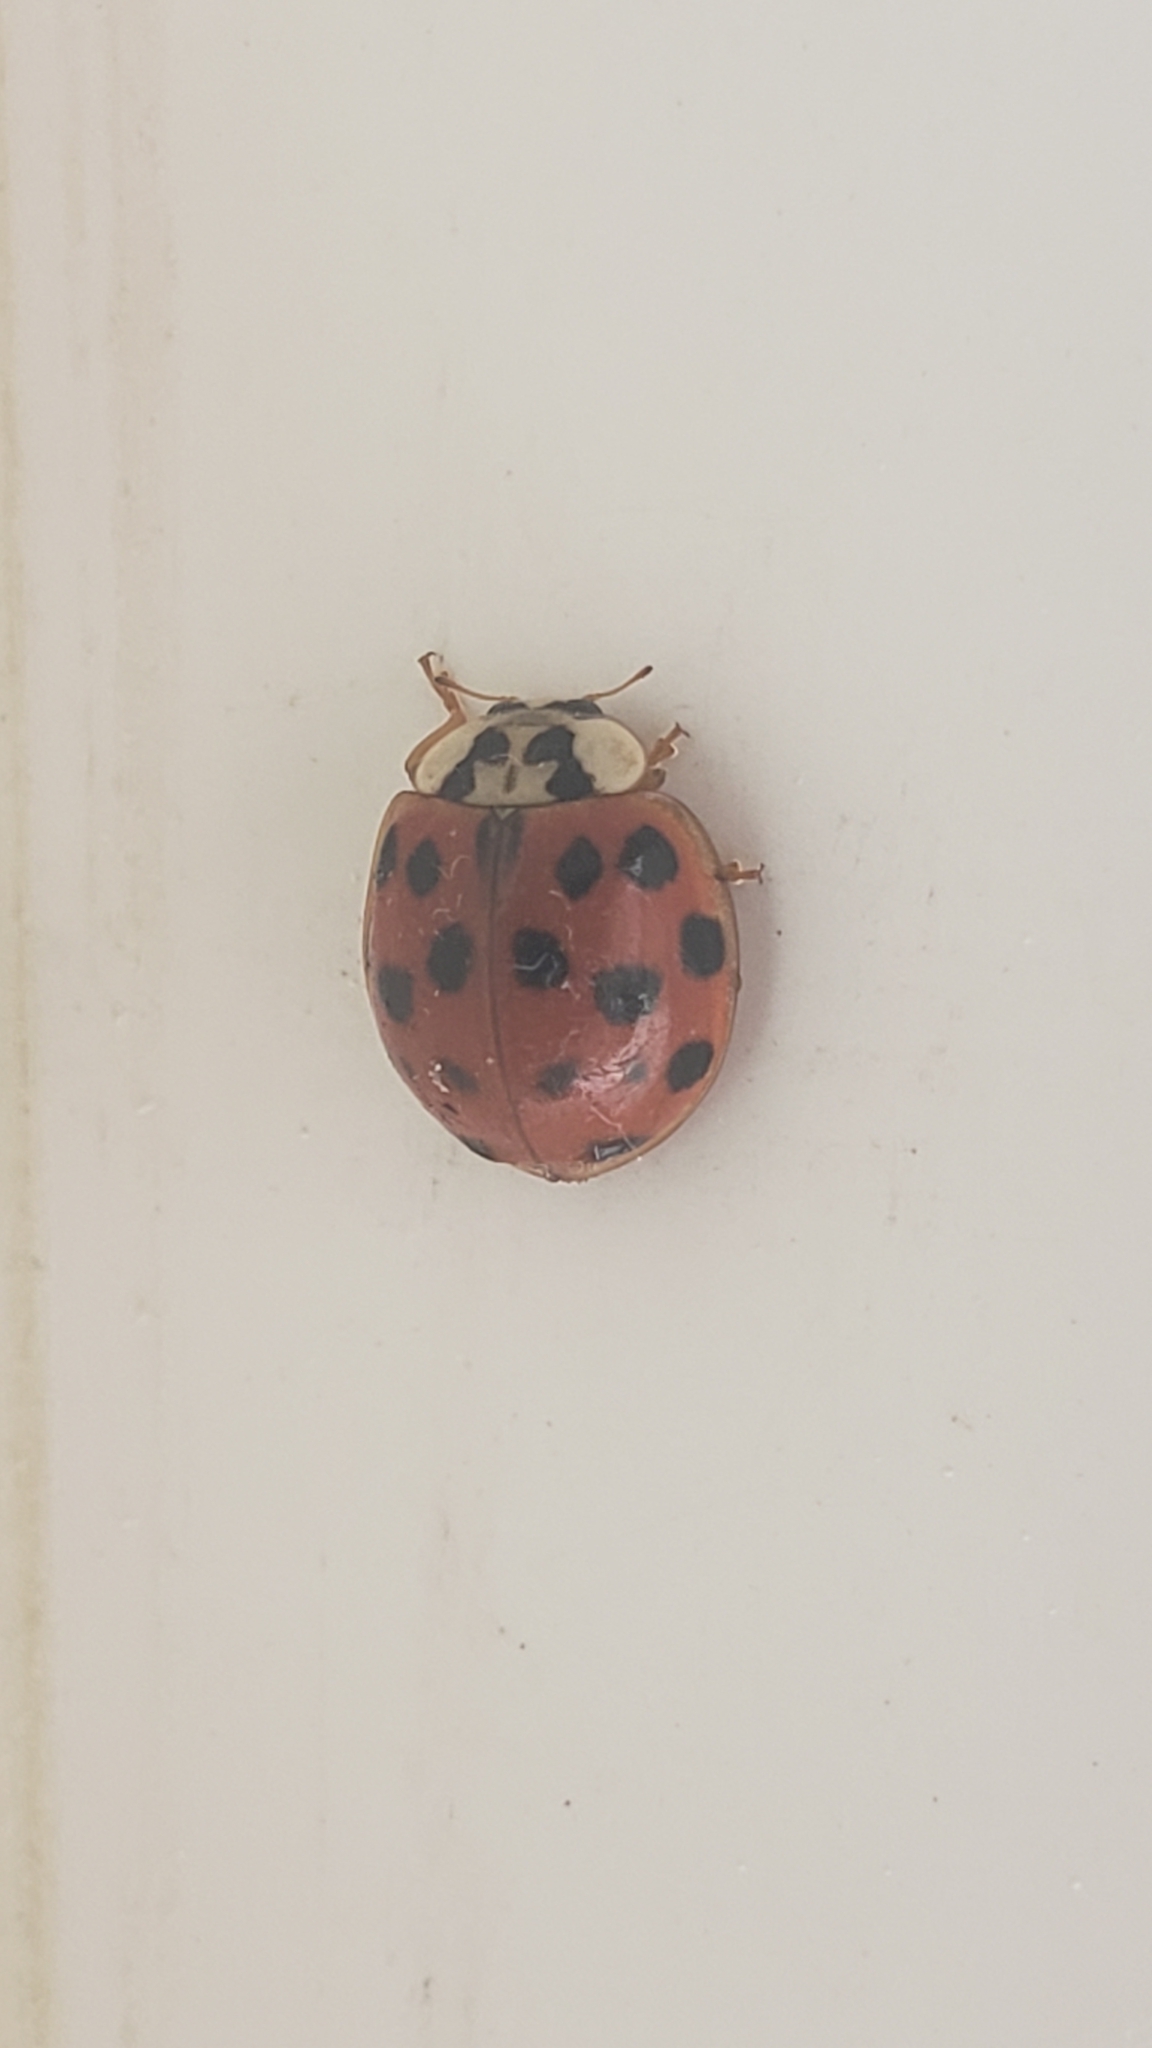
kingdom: Animalia
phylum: Arthropoda
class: Insecta
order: Coleoptera
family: Coccinellidae
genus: Harmonia
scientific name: Harmonia axyridis
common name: Harlequin ladybird
